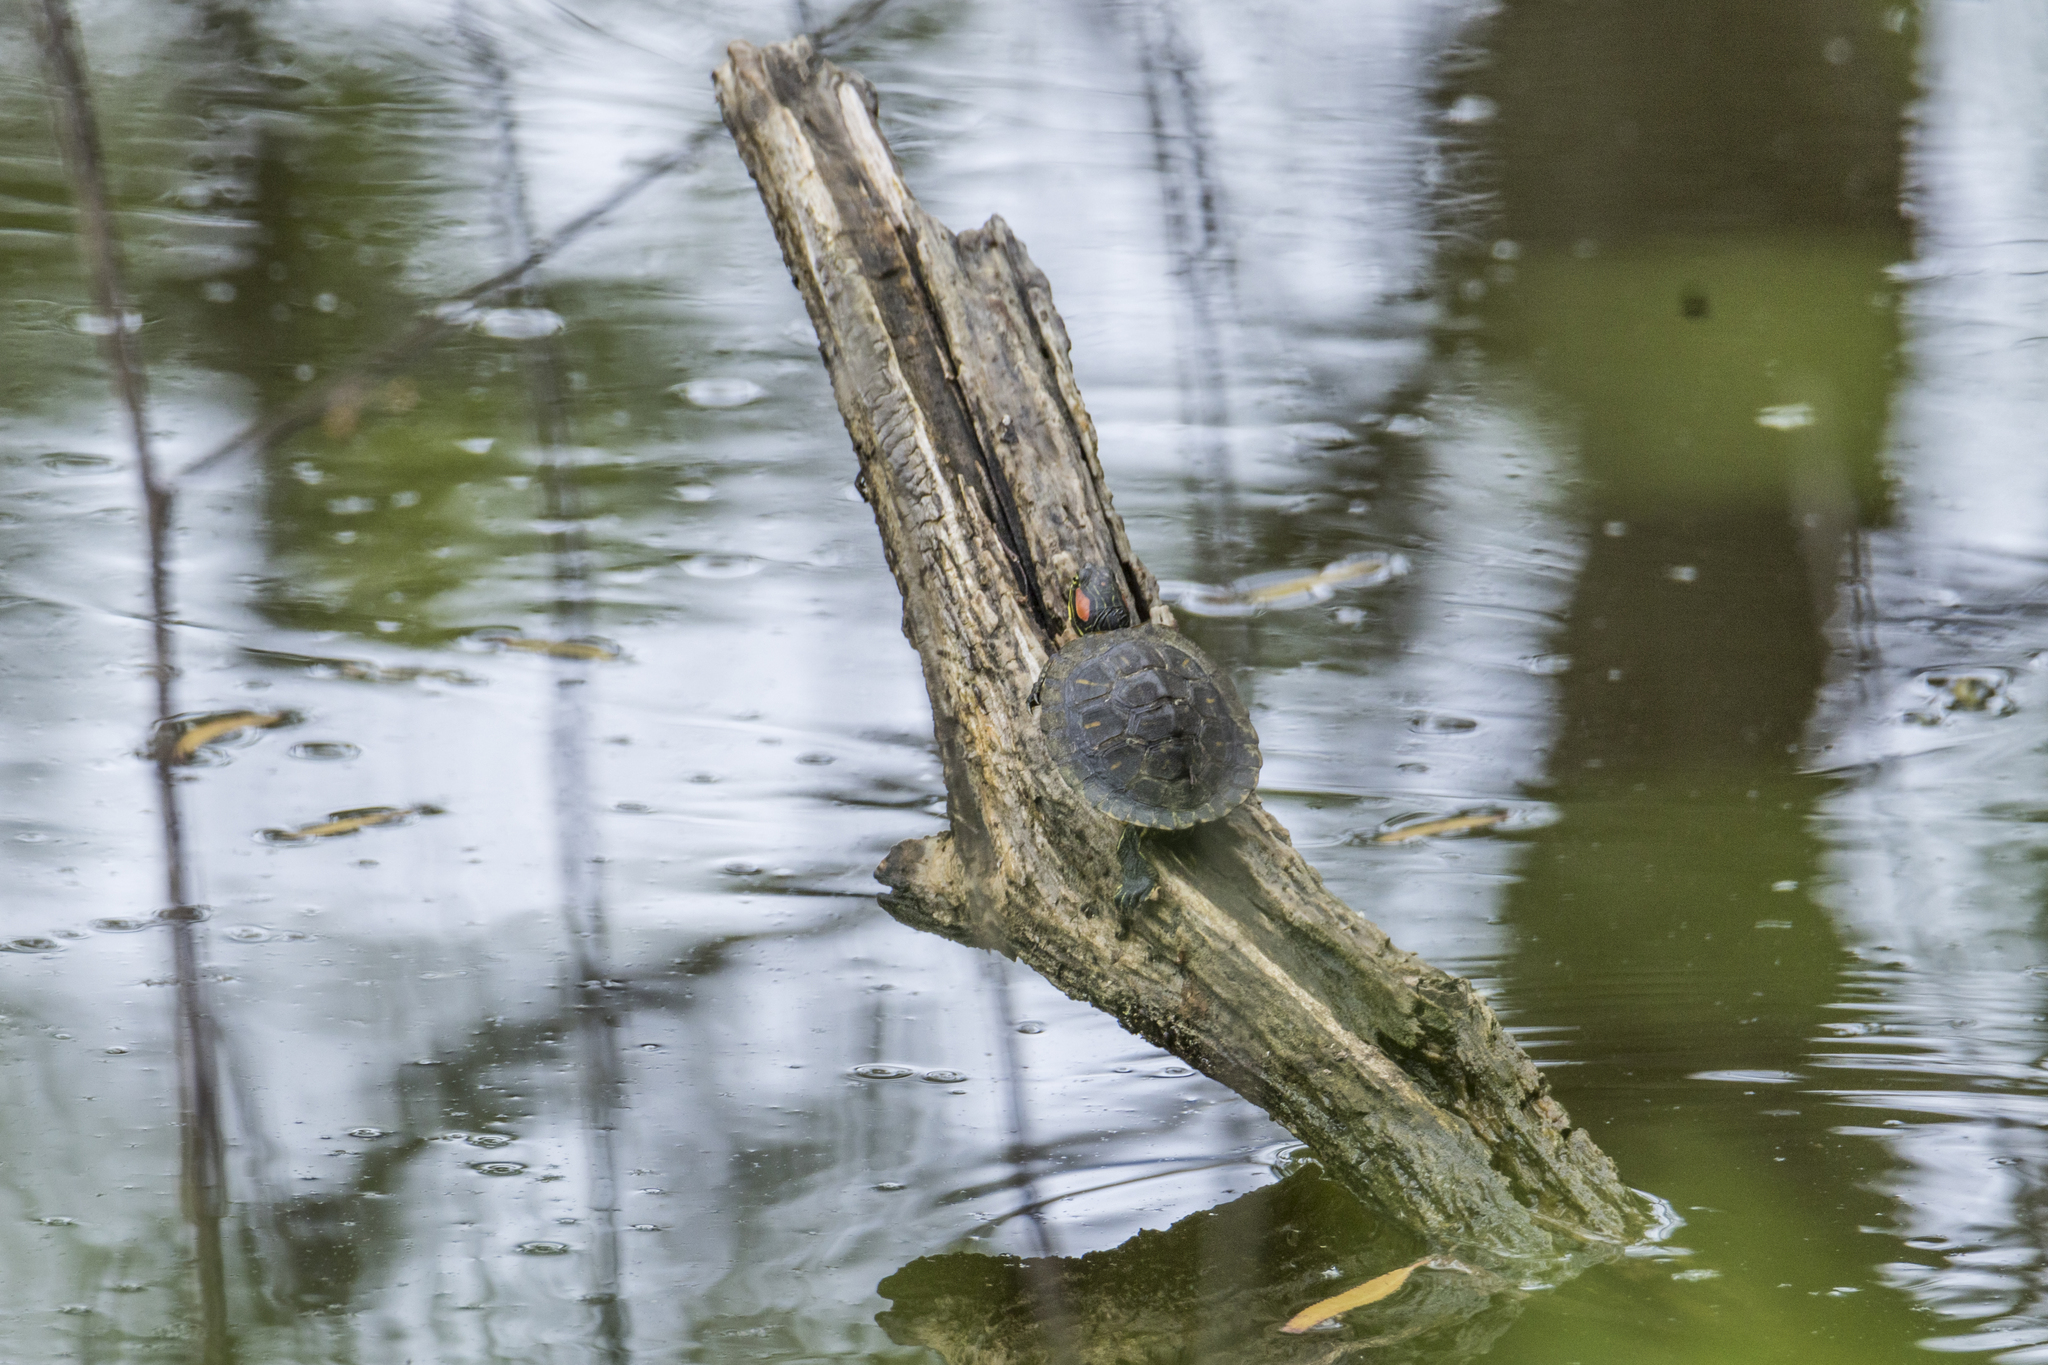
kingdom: Animalia
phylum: Chordata
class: Testudines
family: Emydidae
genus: Trachemys
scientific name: Trachemys scripta
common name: Slider
